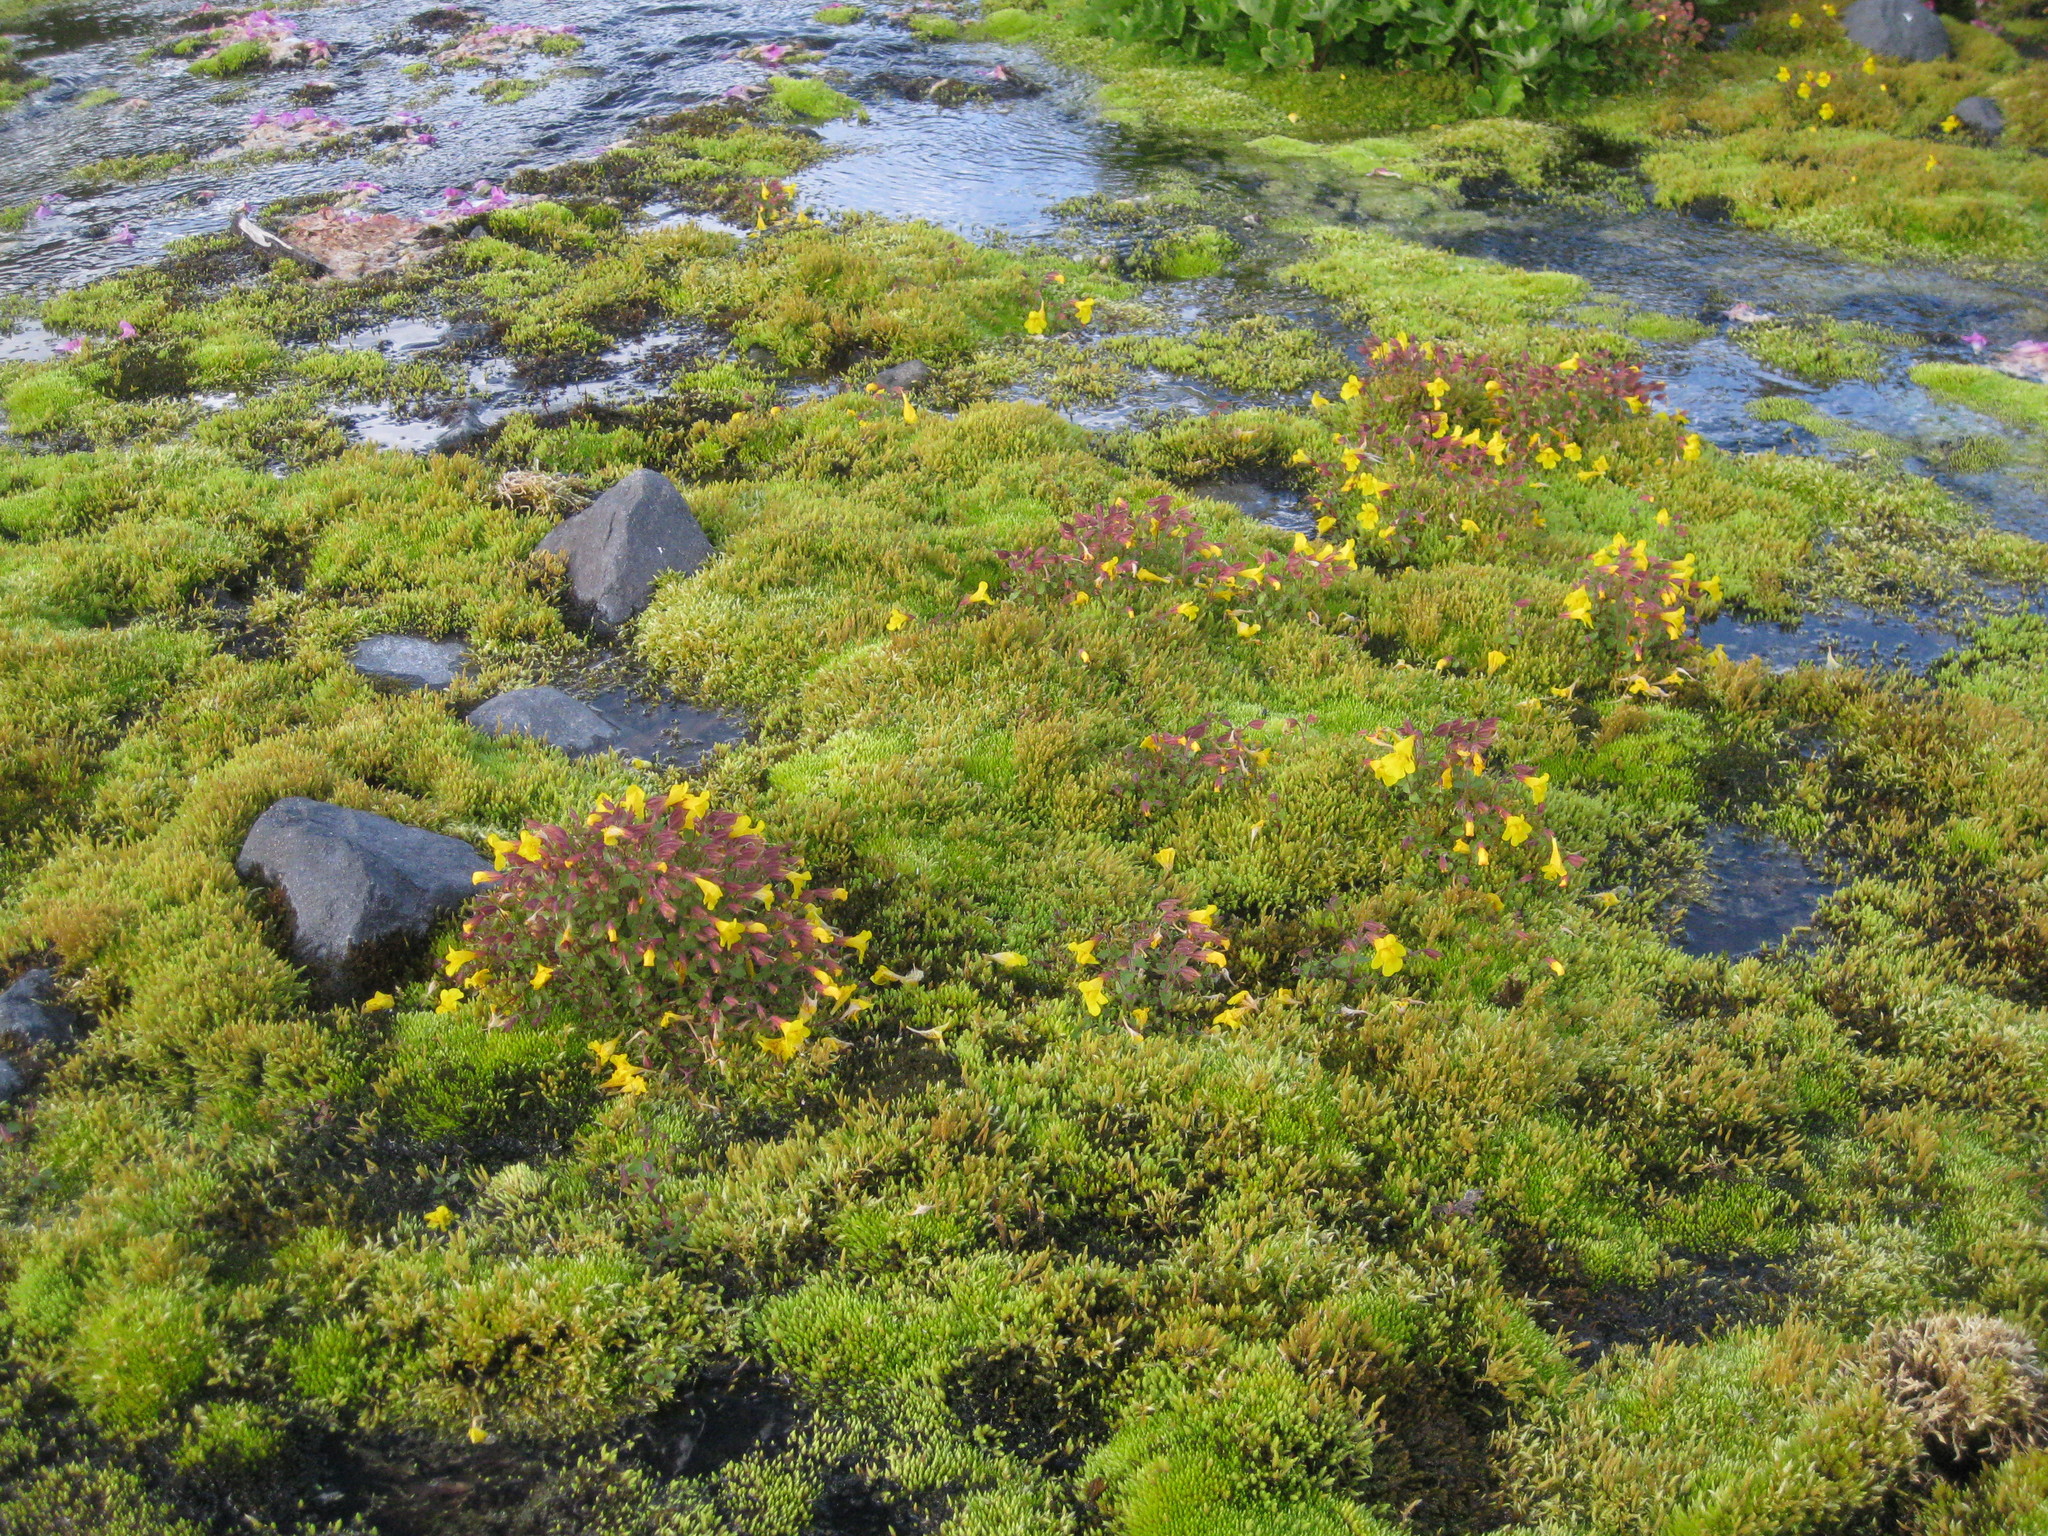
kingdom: Plantae
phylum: Tracheophyta
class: Magnoliopsida
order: Lamiales
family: Phrymaceae
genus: Erythranthe
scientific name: Erythranthe caespitosa
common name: Subalpine monkeyflower
